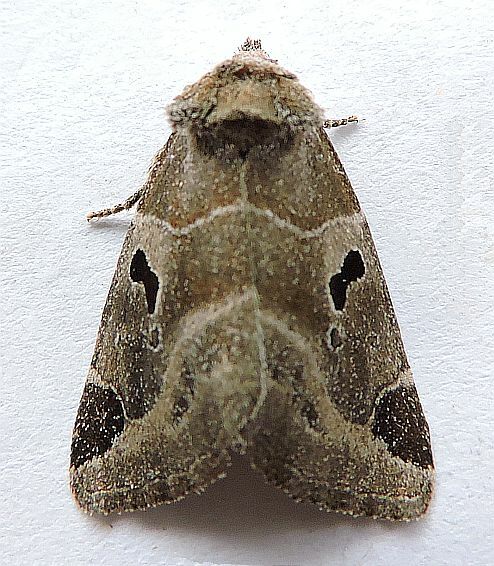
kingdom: Animalia
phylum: Arthropoda
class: Insecta
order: Lepidoptera
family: Noctuidae
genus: Plagiomimicus
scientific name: Plagiomimicus pityochromus
